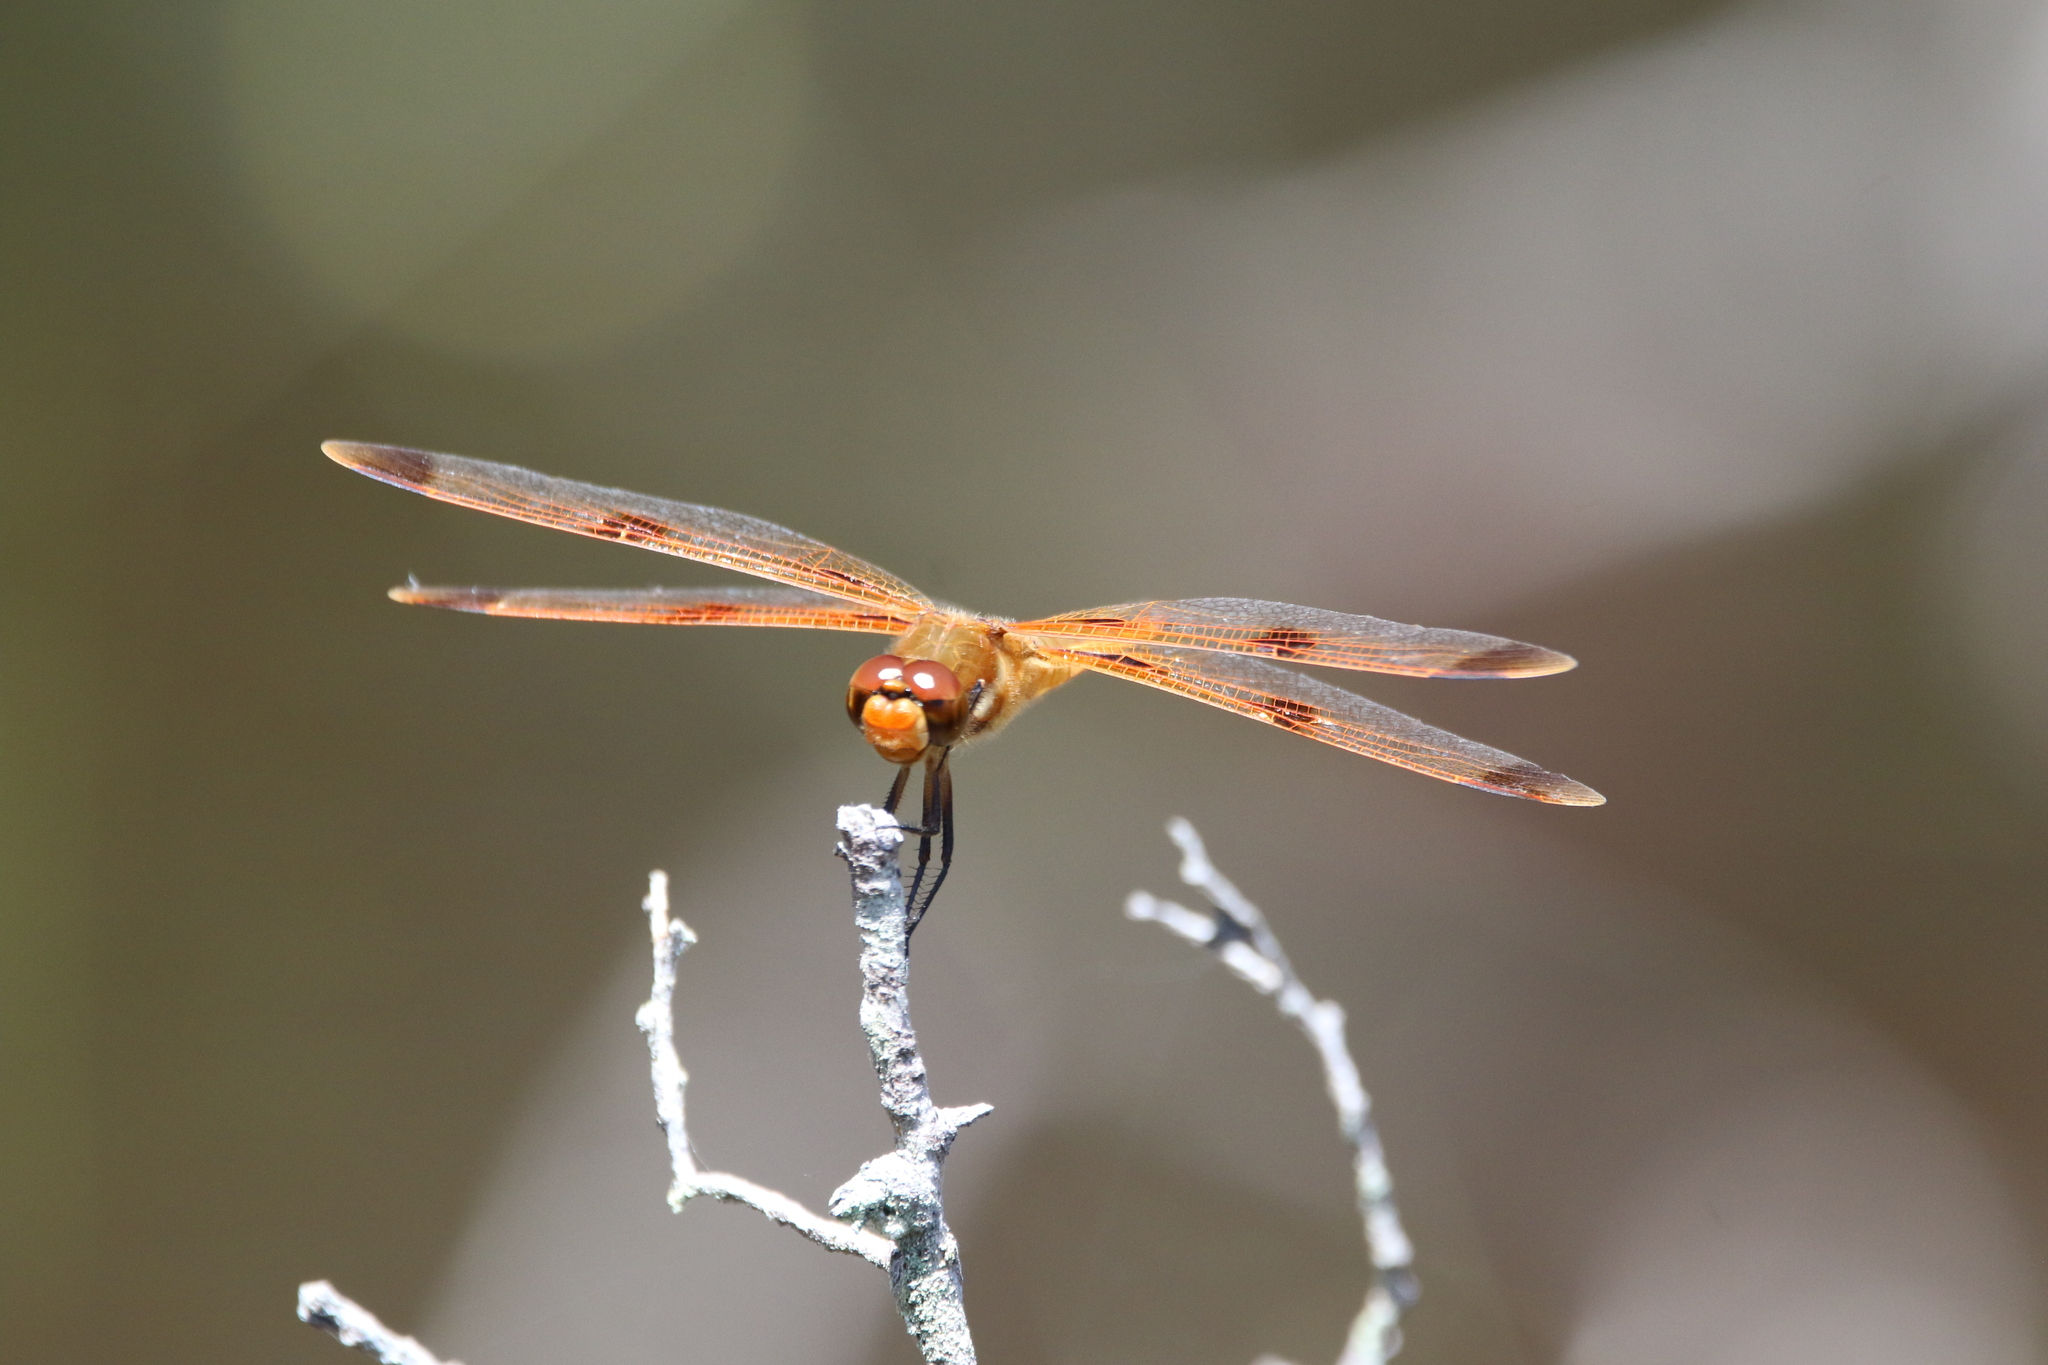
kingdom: Animalia
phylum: Arthropoda
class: Insecta
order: Odonata
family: Libellulidae
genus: Libellula
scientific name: Libellula semifasciata
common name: Painted skimmer
